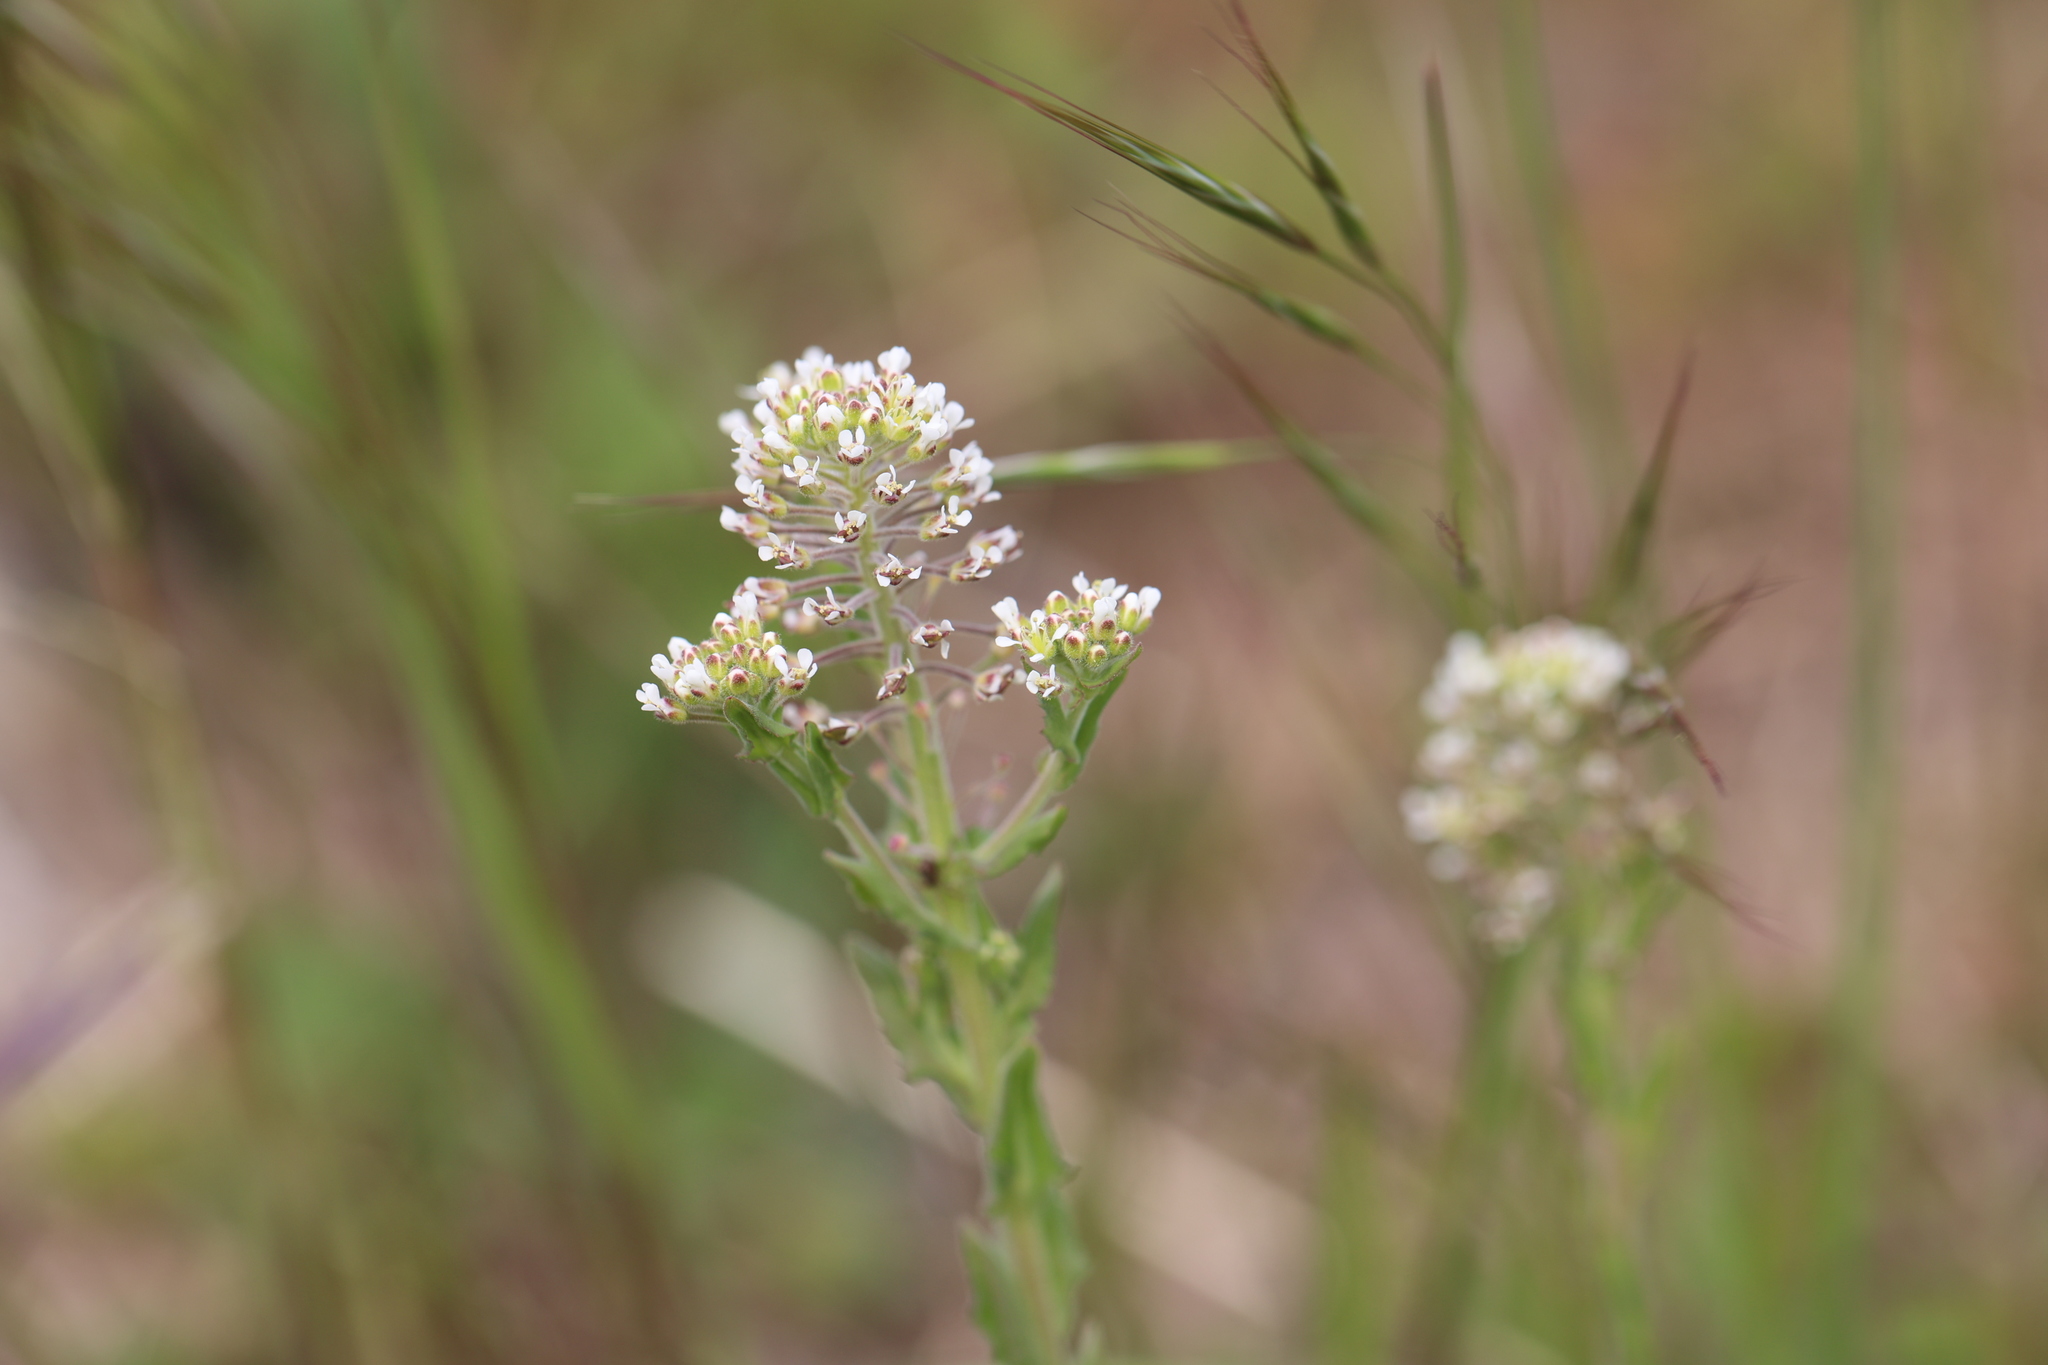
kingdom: Plantae
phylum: Tracheophyta
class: Magnoliopsida
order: Brassicales
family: Brassicaceae
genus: Lepidium
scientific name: Lepidium campestre
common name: Field pepperwort
